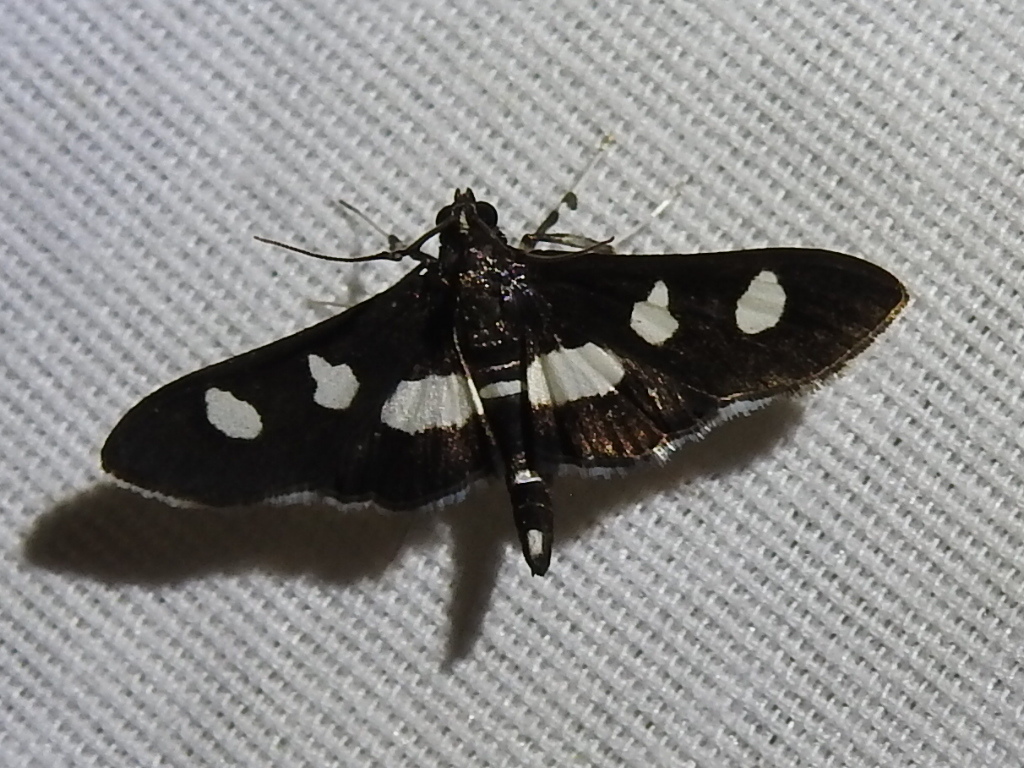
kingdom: Animalia
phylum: Arthropoda
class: Insecta
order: Lepidoptera
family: Crambidae
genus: Desmia
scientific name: Desmia
